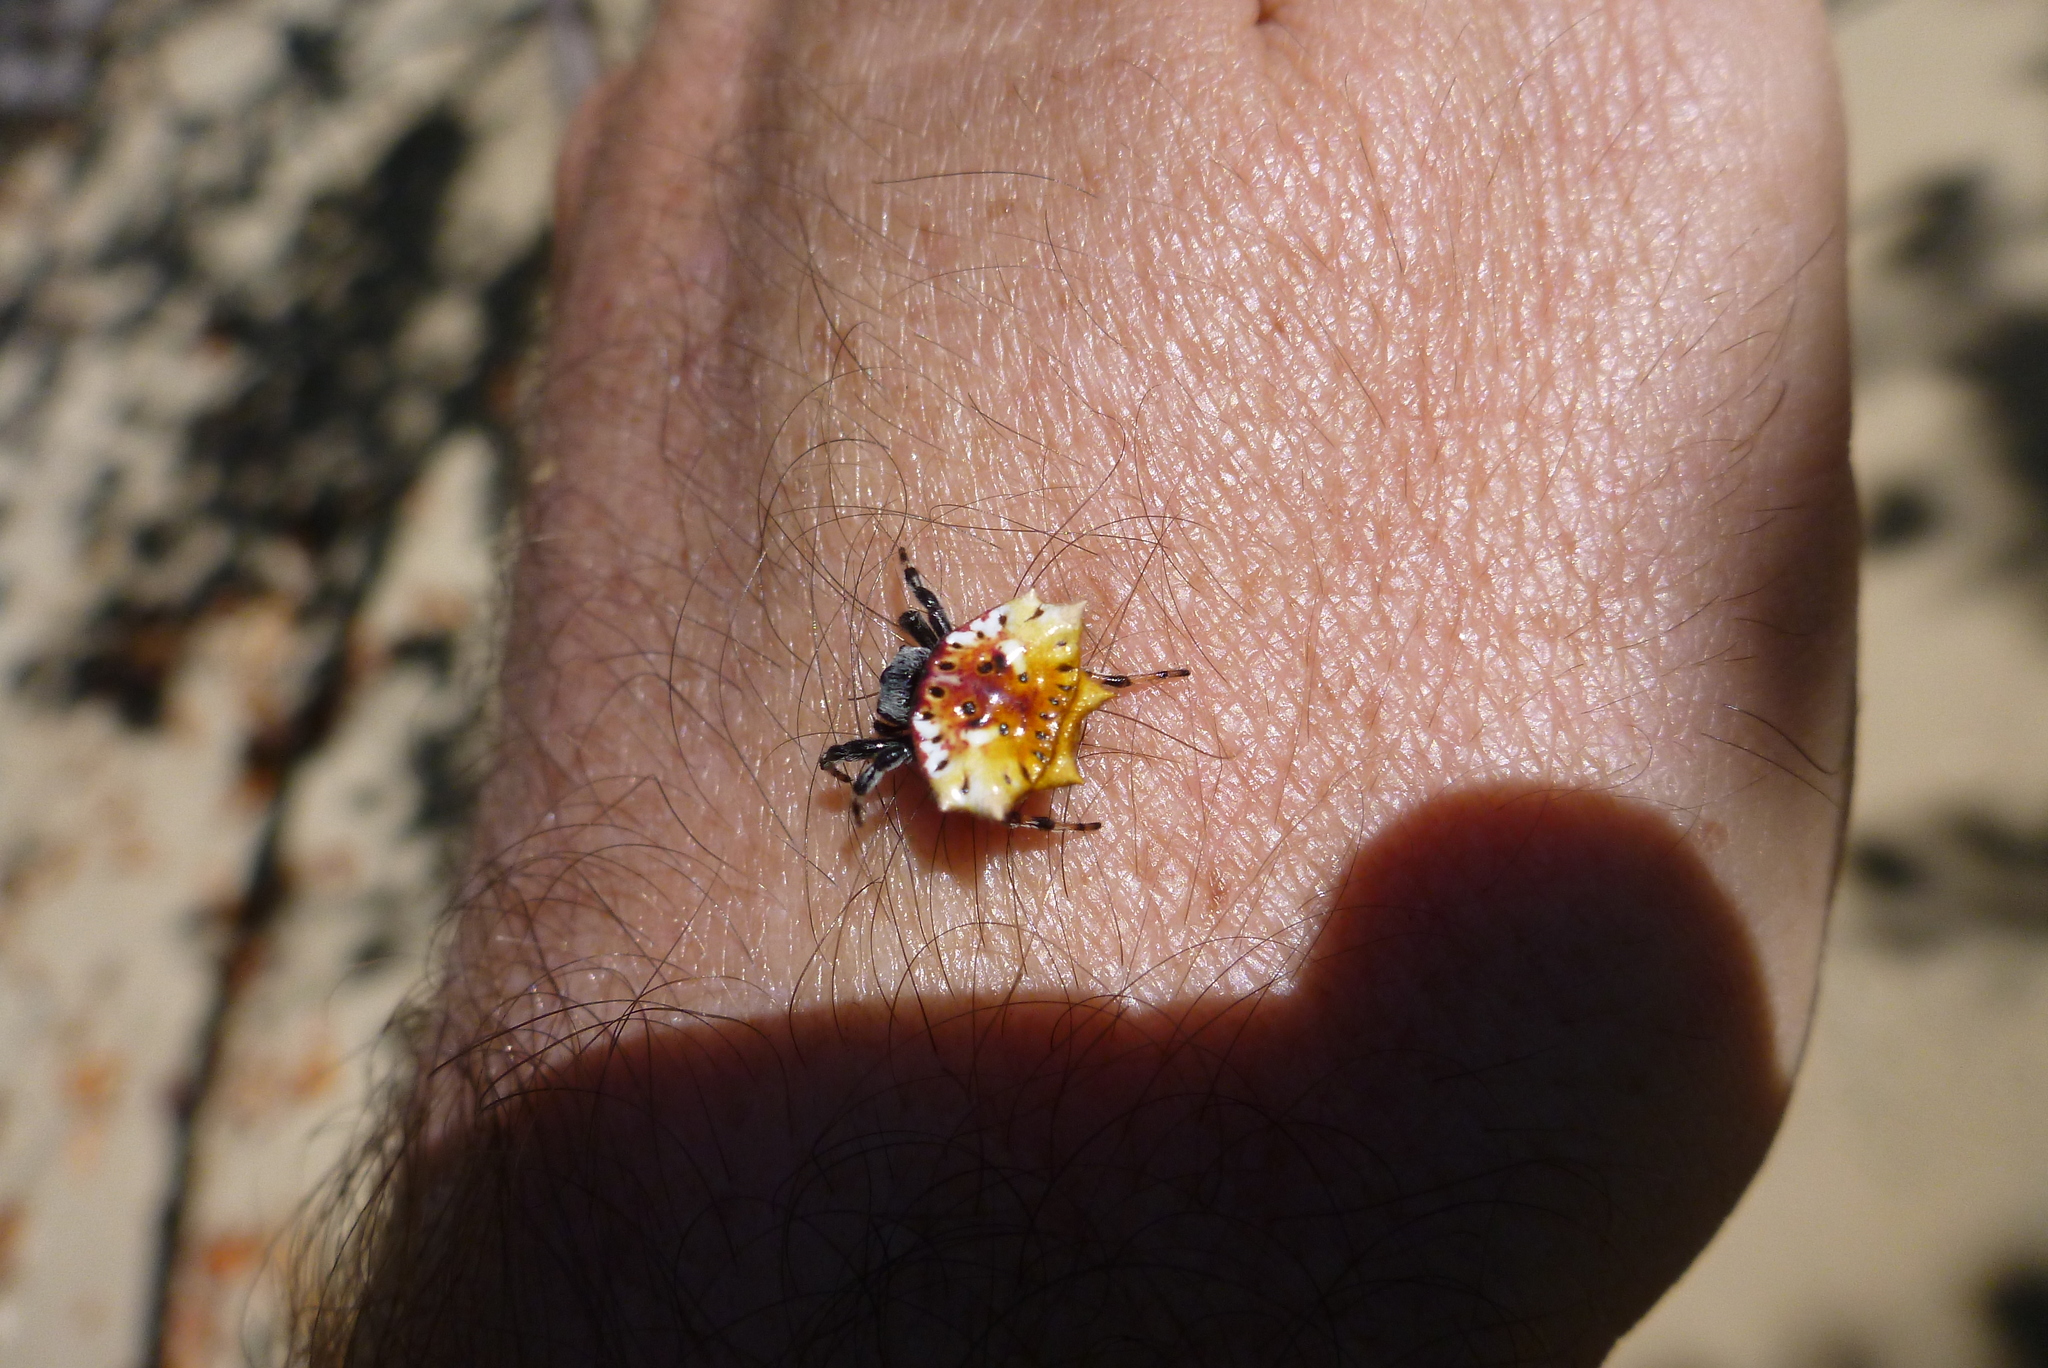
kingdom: Animalia
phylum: Arthropoda
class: Arachnida
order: Araneae
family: Araneidae
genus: Thelacantha
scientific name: Thelacantha brevispina
